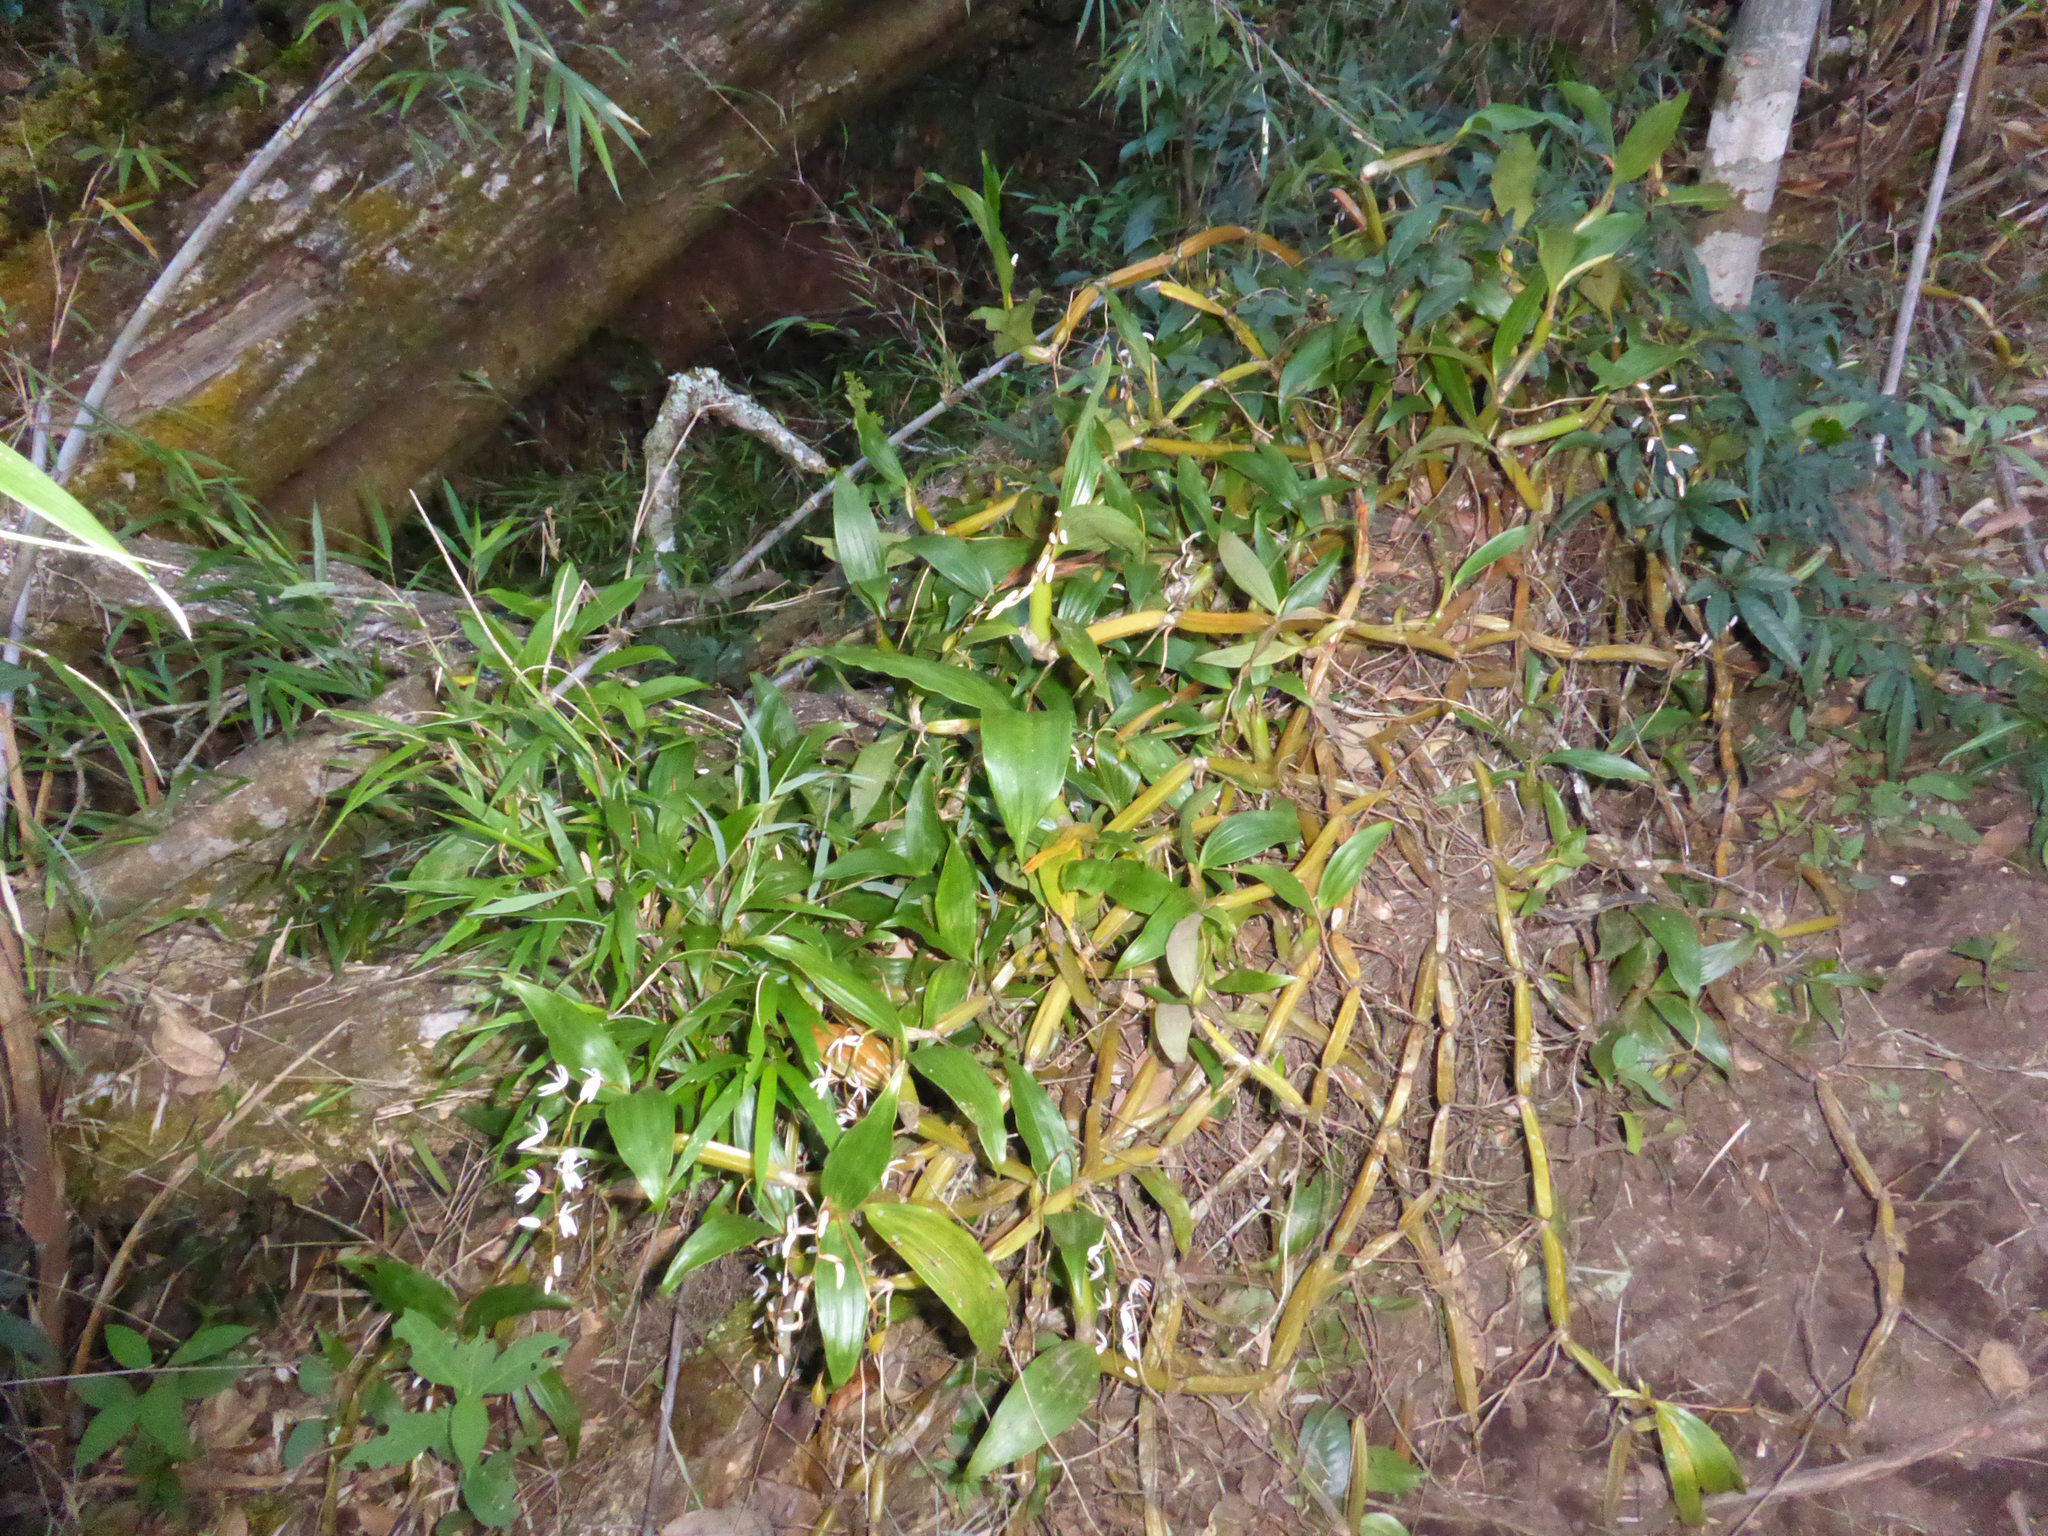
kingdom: Plantae
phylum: Tracheophyta
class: Liliopsida
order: Asparagales
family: Orchidaceae
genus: Coelogyne
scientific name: Coelogyne lancilabia
